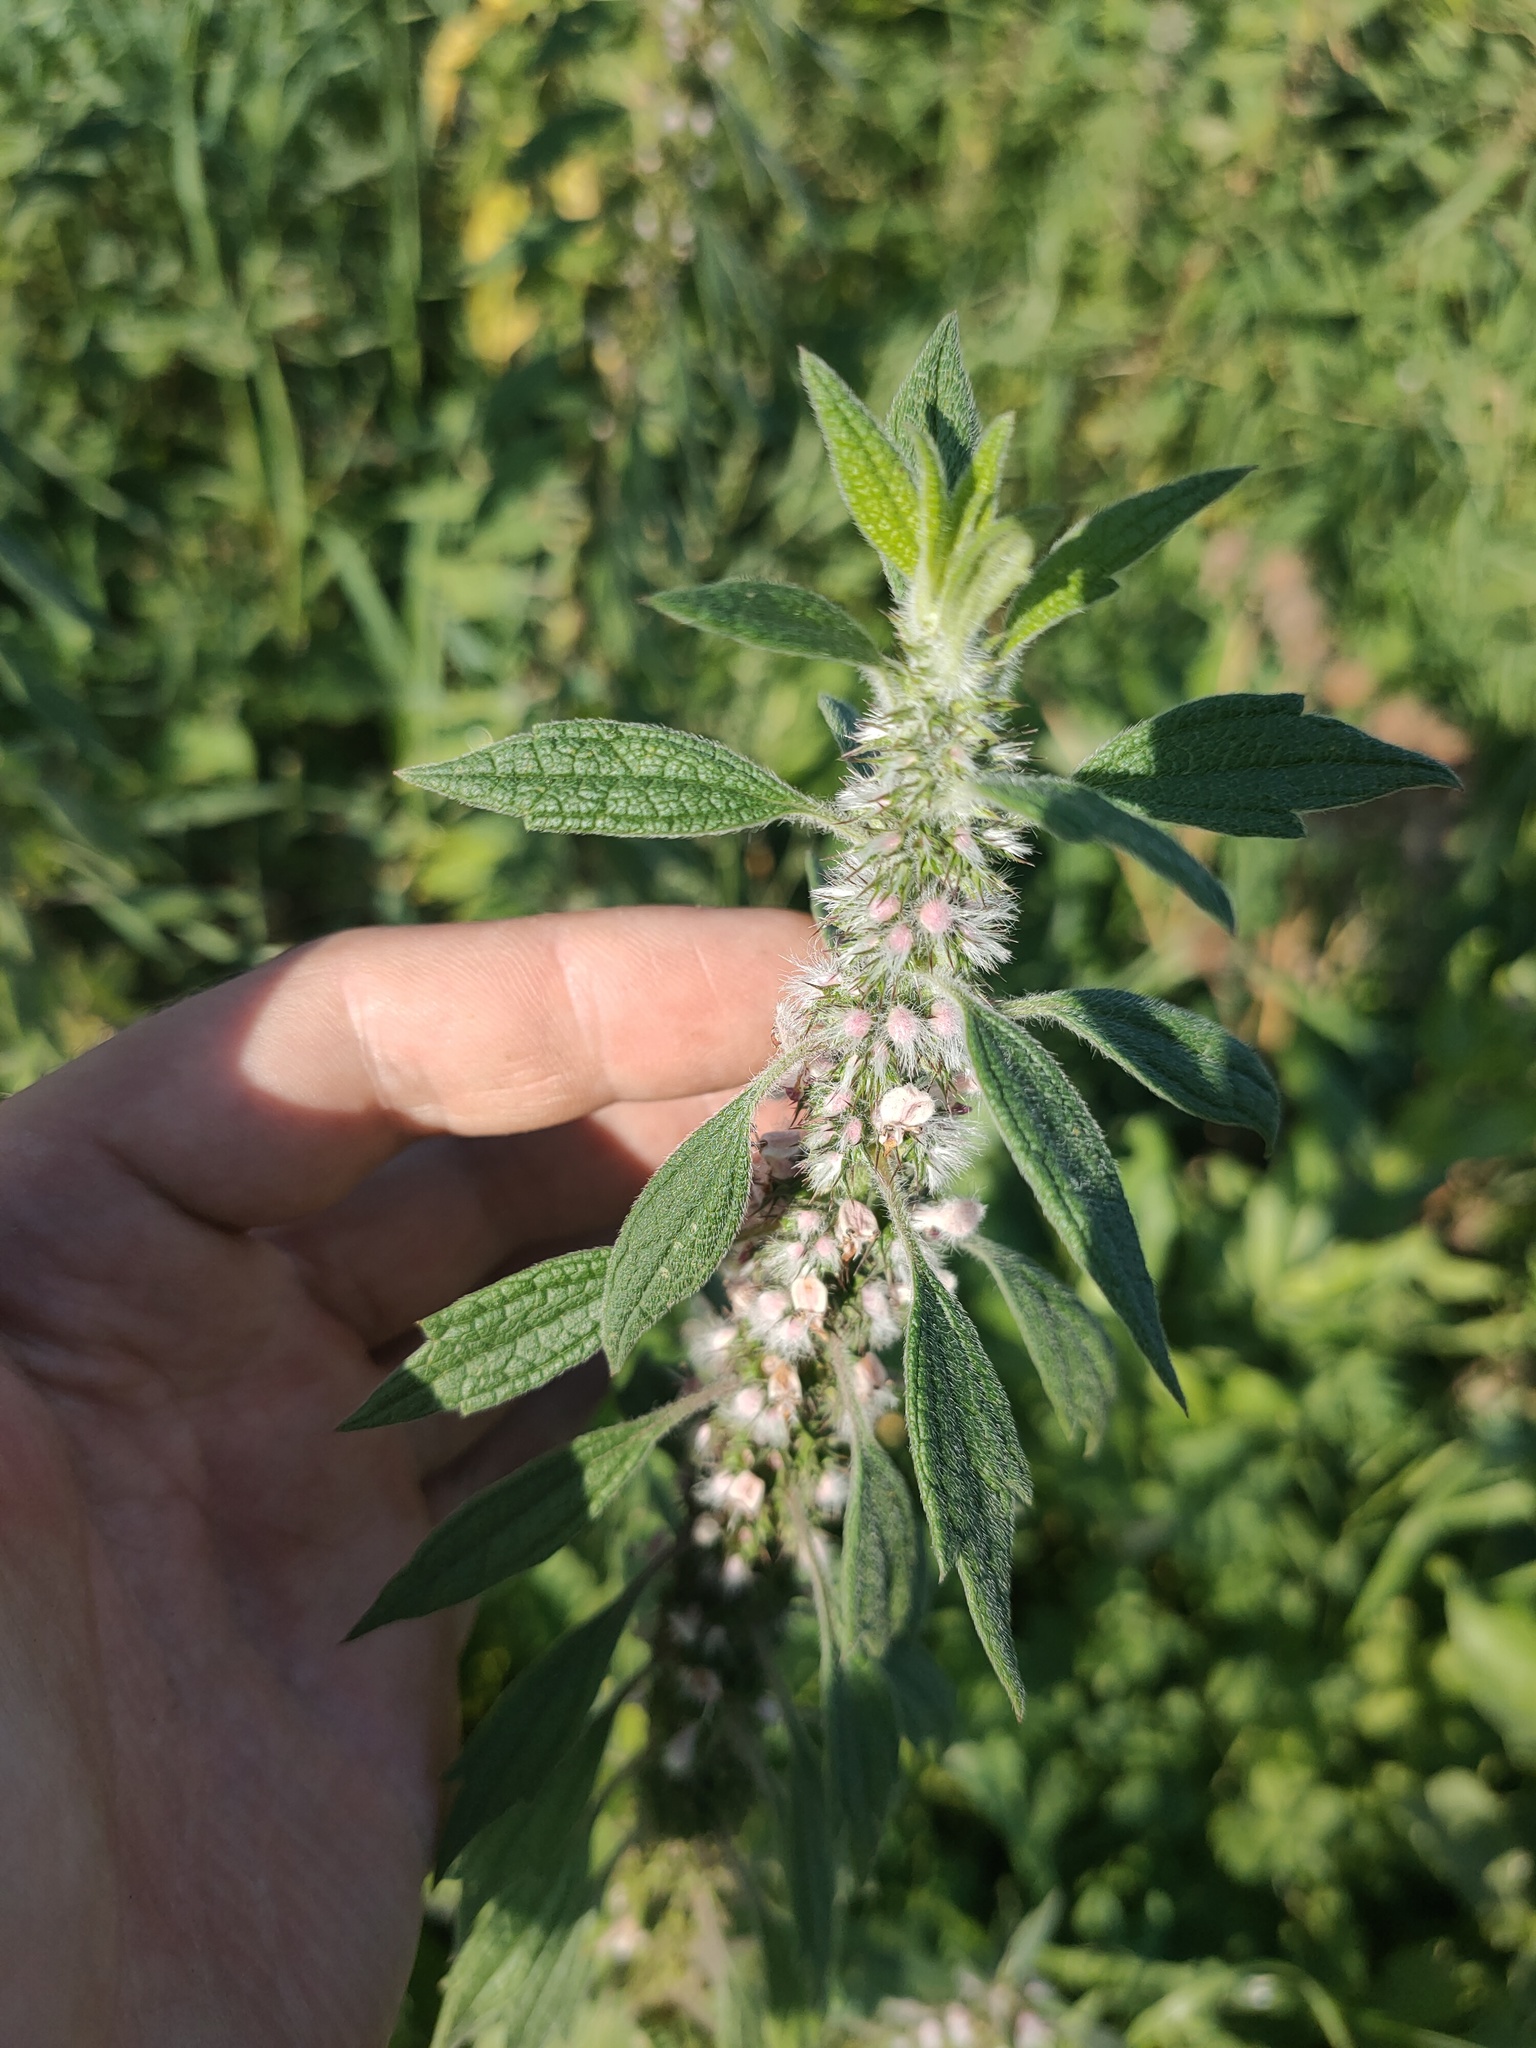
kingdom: Plantae
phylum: Tracheophyta
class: Magnoliopsida
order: Lamiales
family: Lamiaceae
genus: Leonurus
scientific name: Leonurus quinquelobatus
